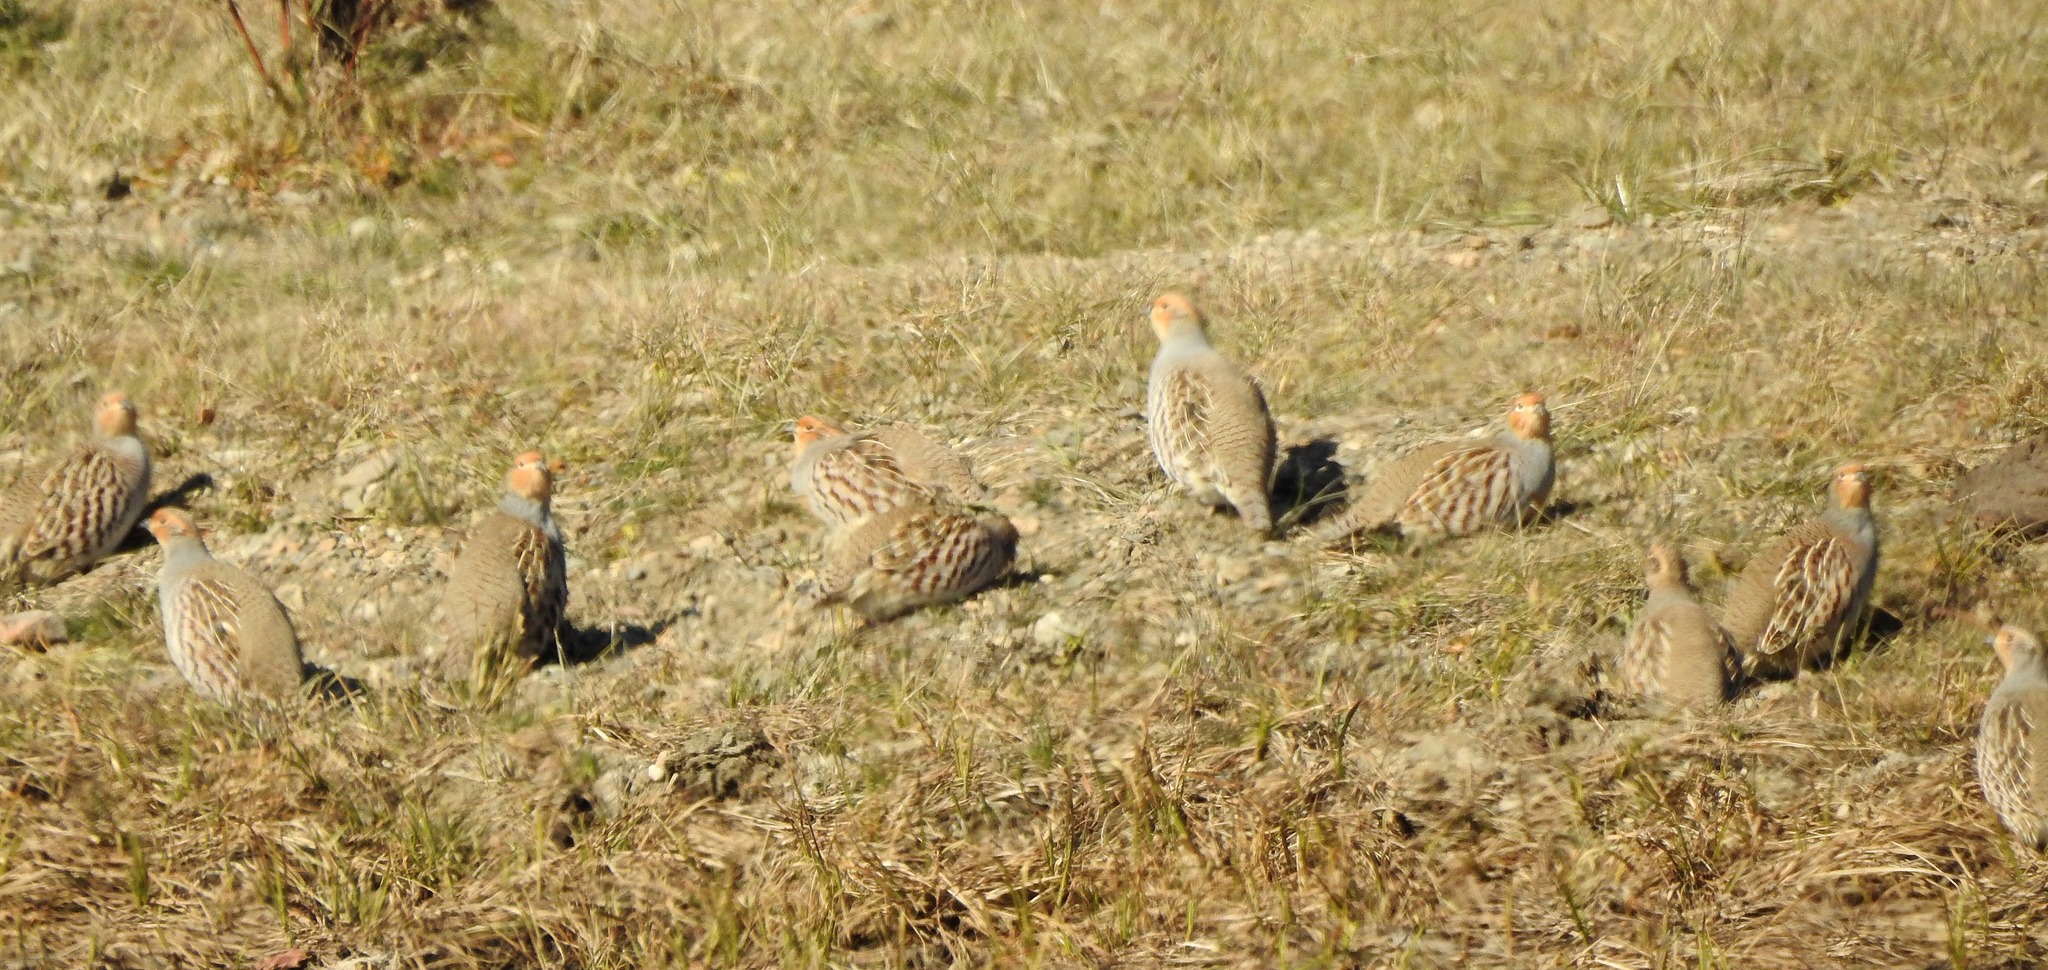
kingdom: Animalia
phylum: Chordata
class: Aves
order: Galliformes
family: Phasianidae
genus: Perdix
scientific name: Perdix dauurica
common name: Daurian partridge
